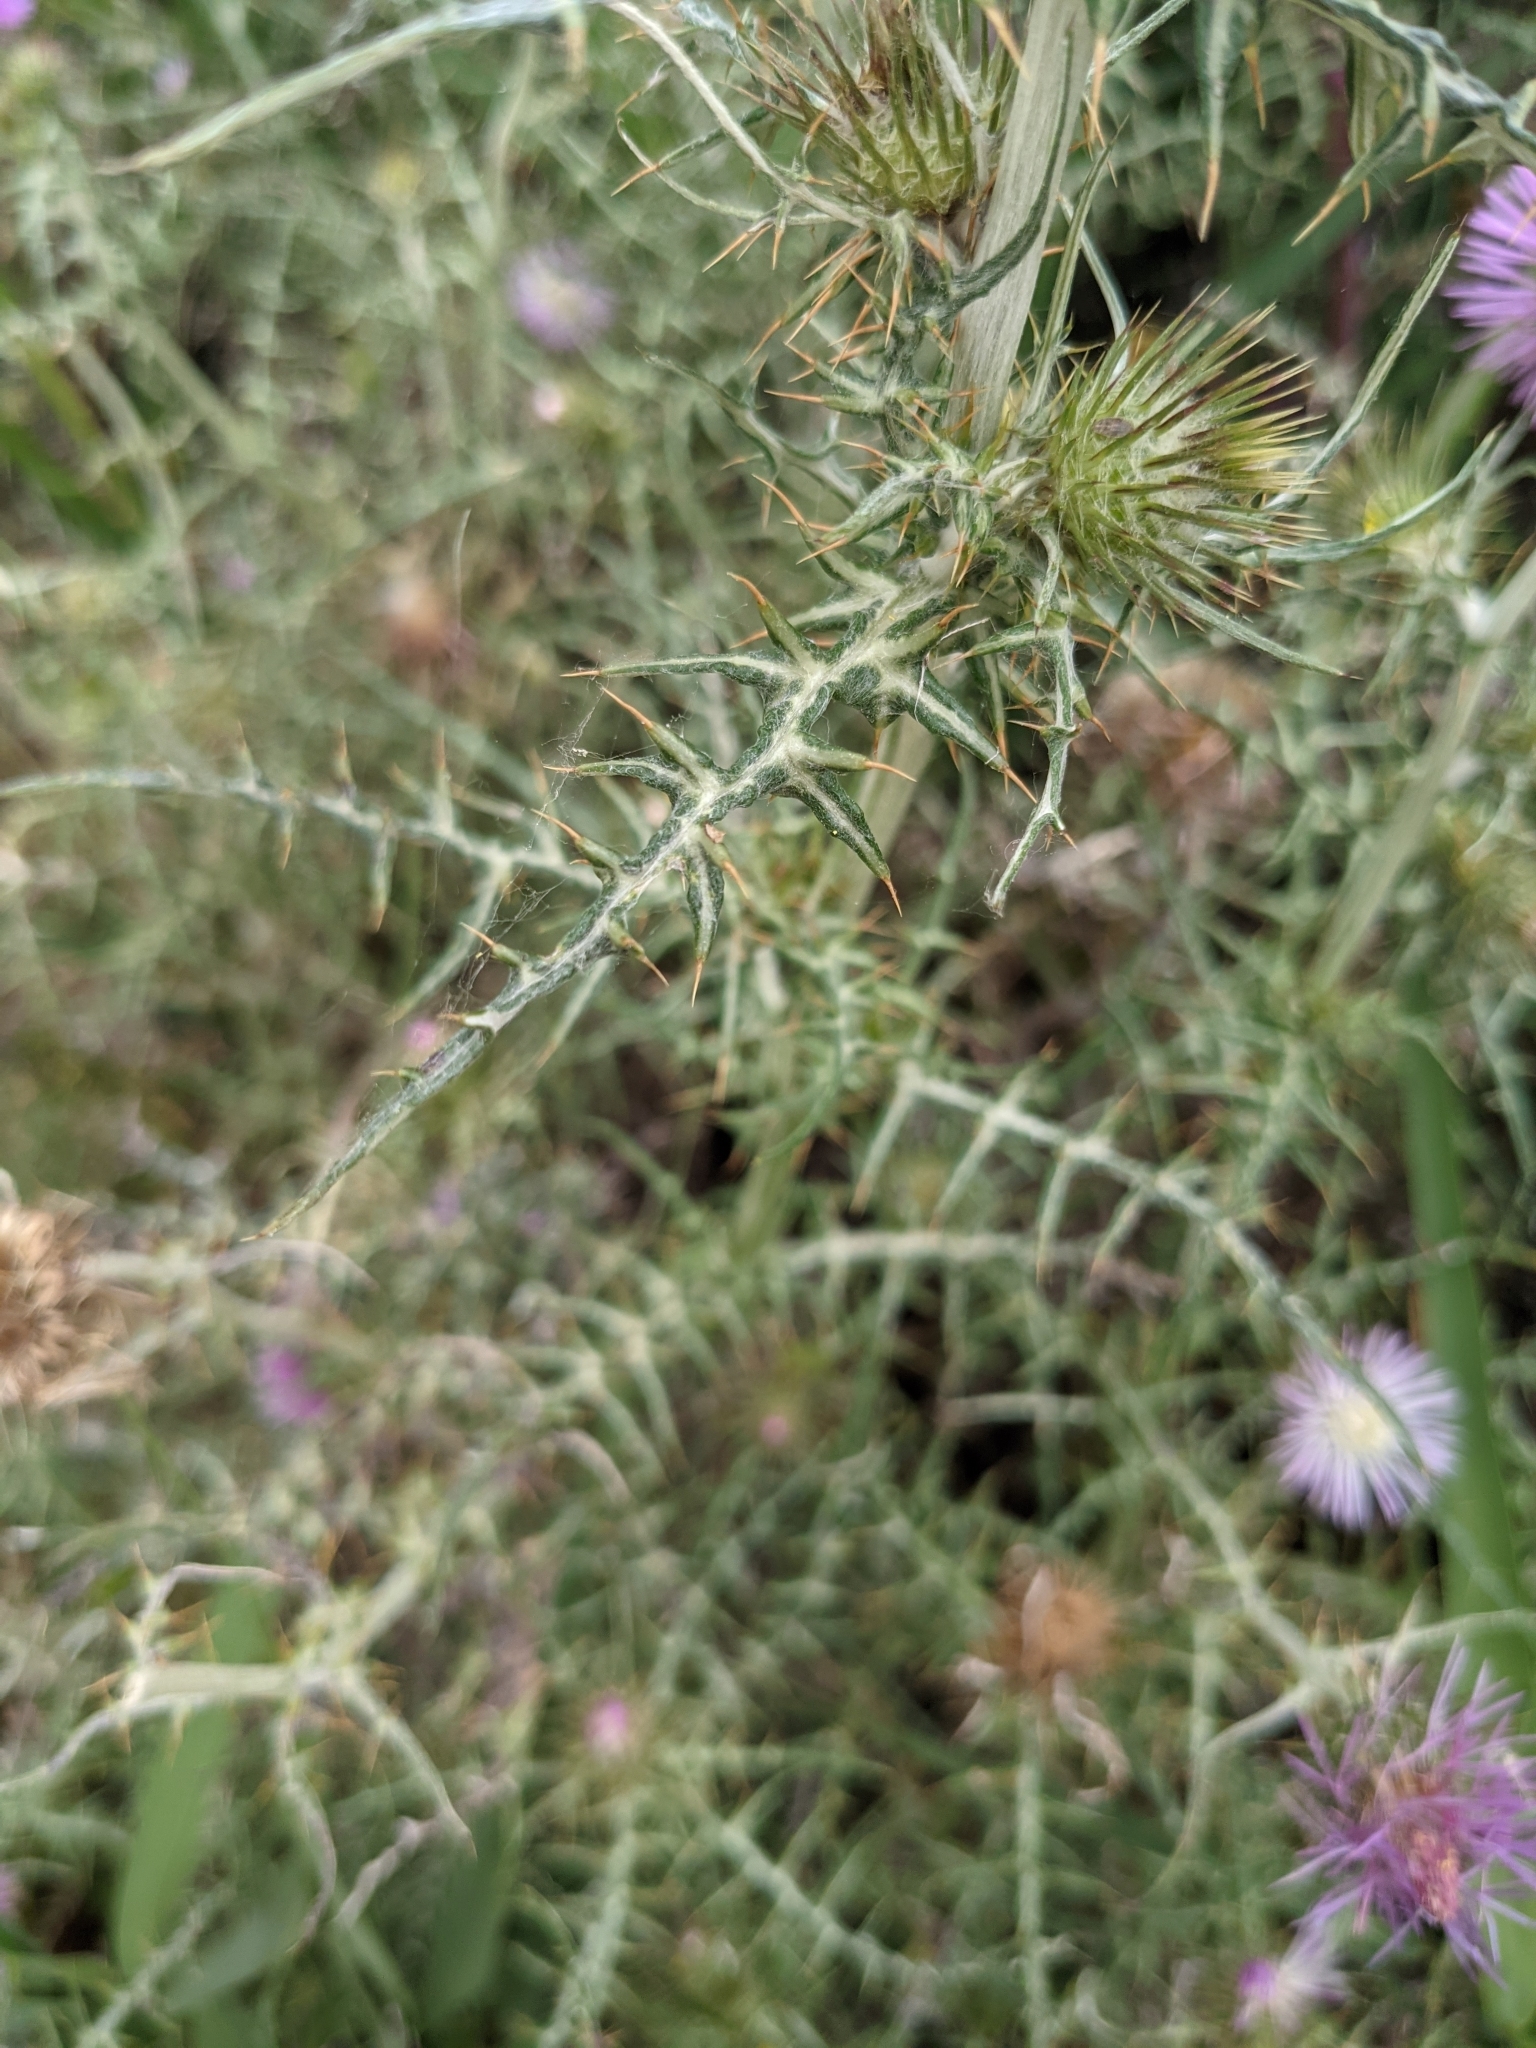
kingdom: Plantae
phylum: Tracheophyta
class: Magnoliopsida
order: Asterales
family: Asteraceae
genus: Galactites
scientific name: Galactites tomentosa
